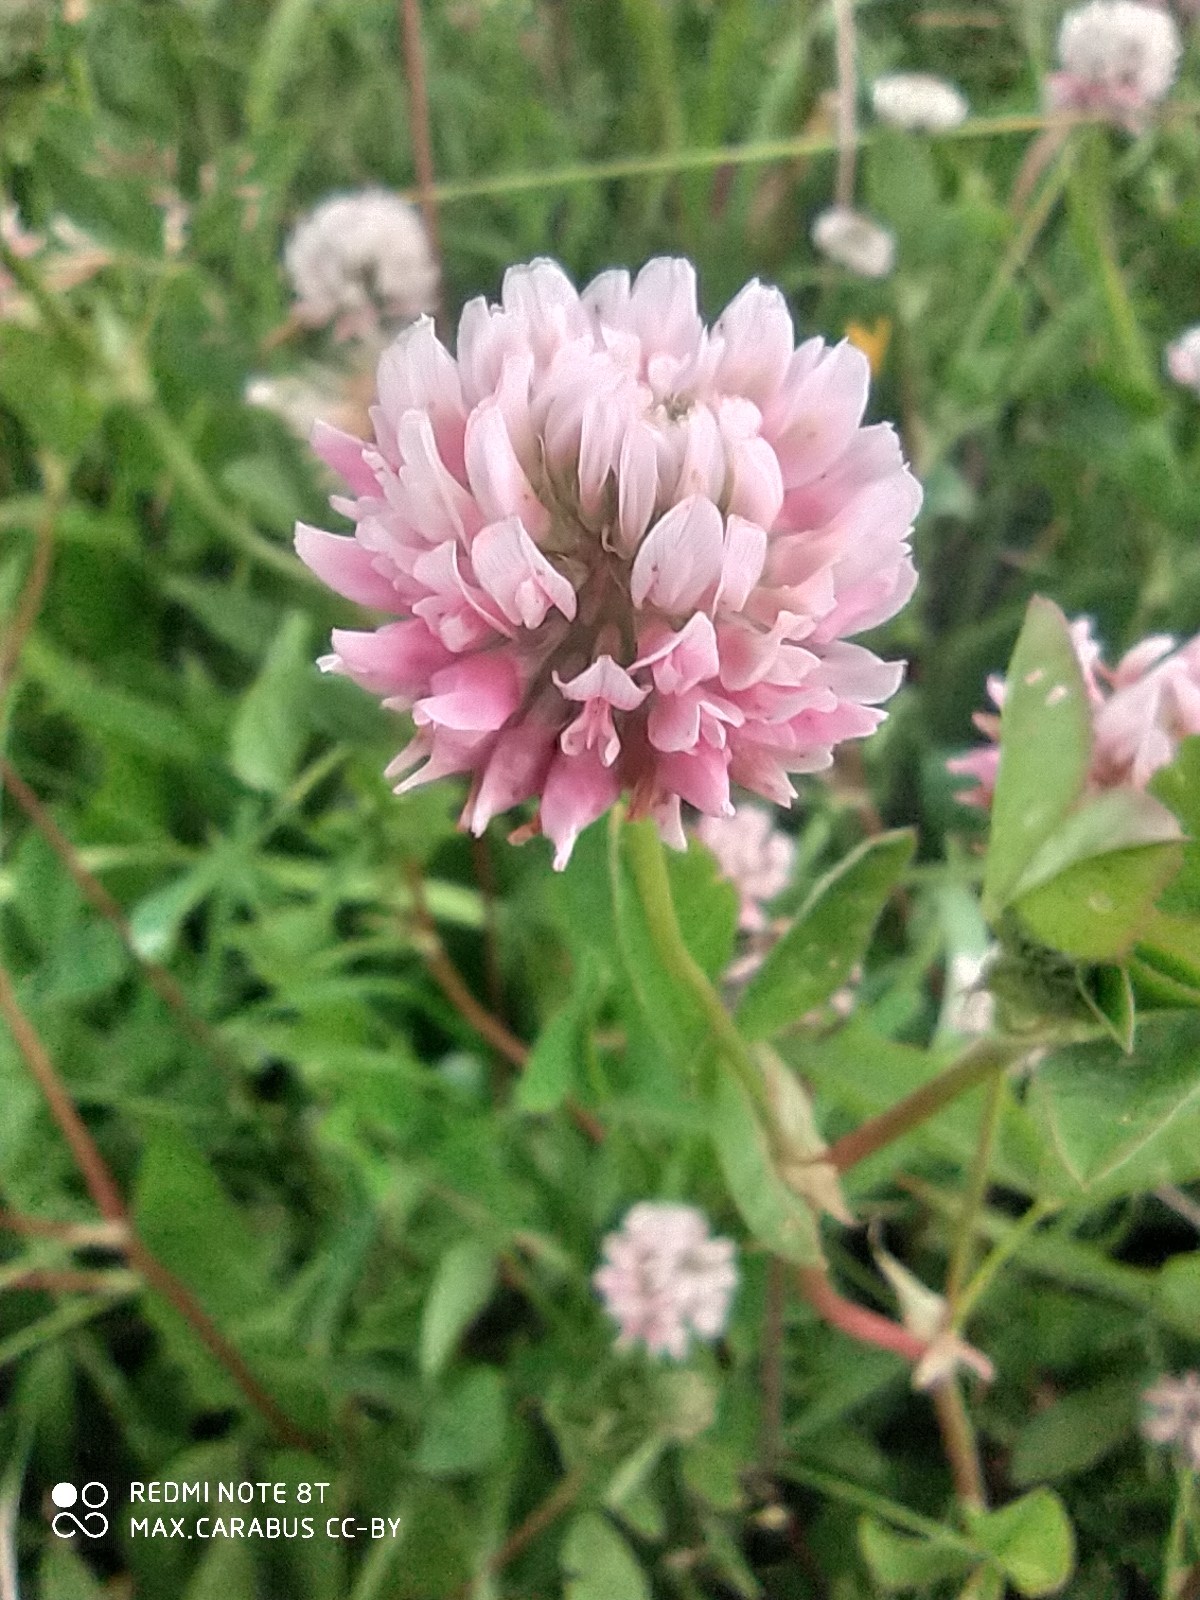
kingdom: Plantae
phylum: Tracheophyta
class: Magnoliopsida
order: Fabales
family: Fabaceae
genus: Trifolium
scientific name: Trifolium hybridum
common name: Alsike clover
